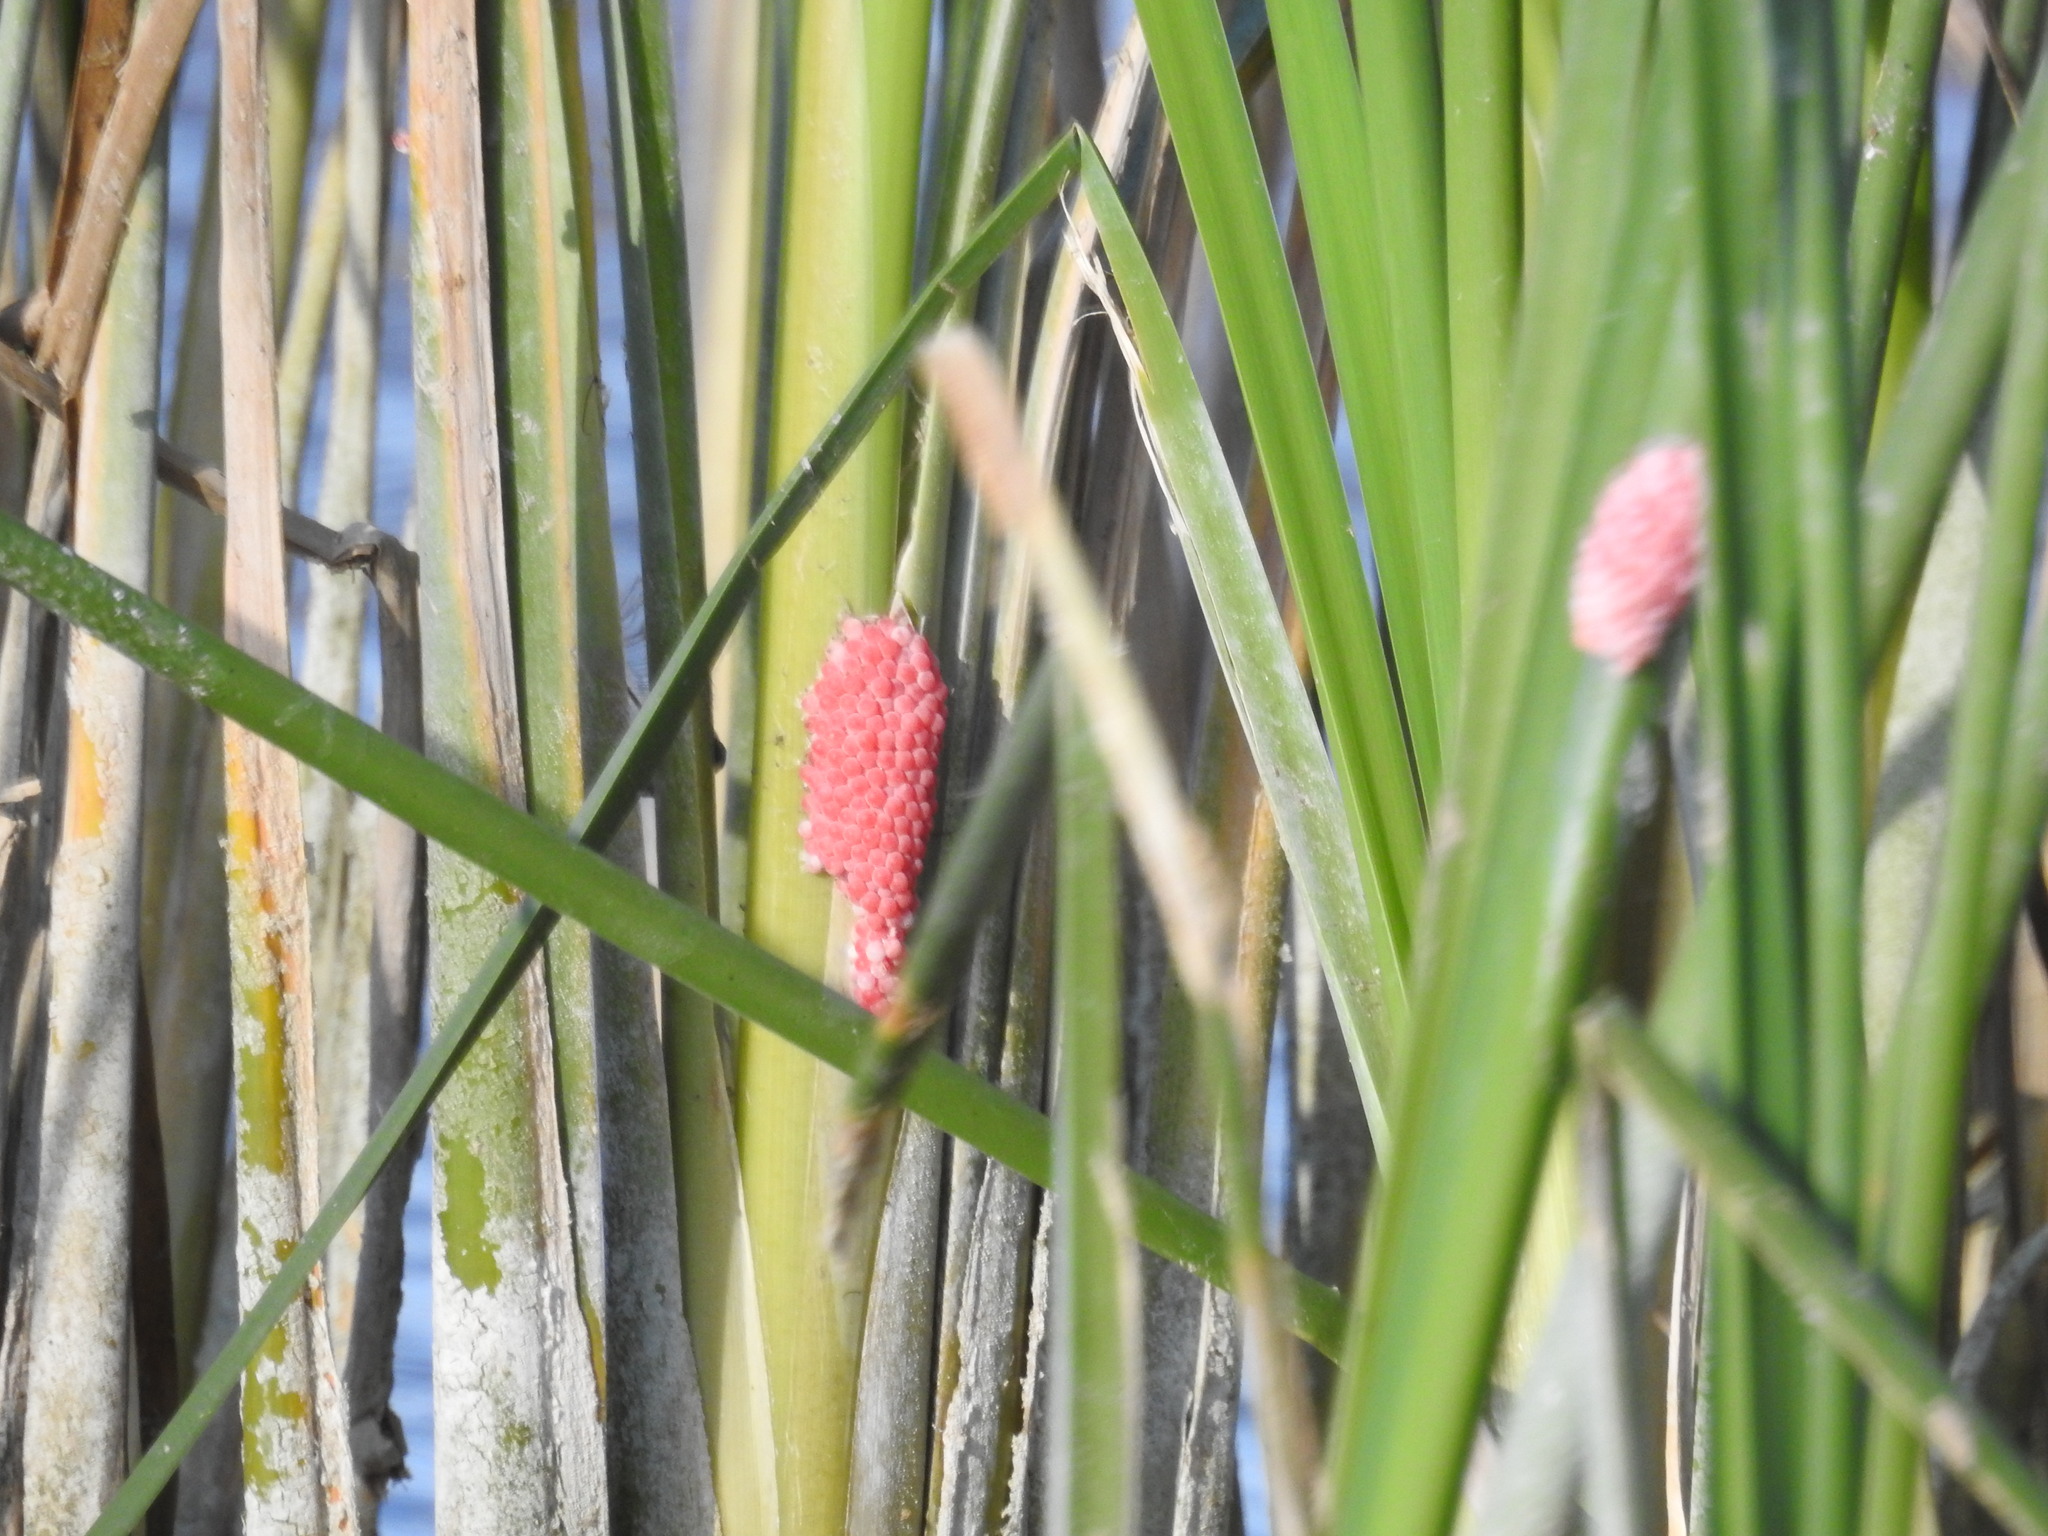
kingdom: Animalia
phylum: Mollusca
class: Gastropoda
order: Architaenioglossa
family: Ampullariidae
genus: Pomacea
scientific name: Pomacea canaliculata
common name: Channeled applesnail
